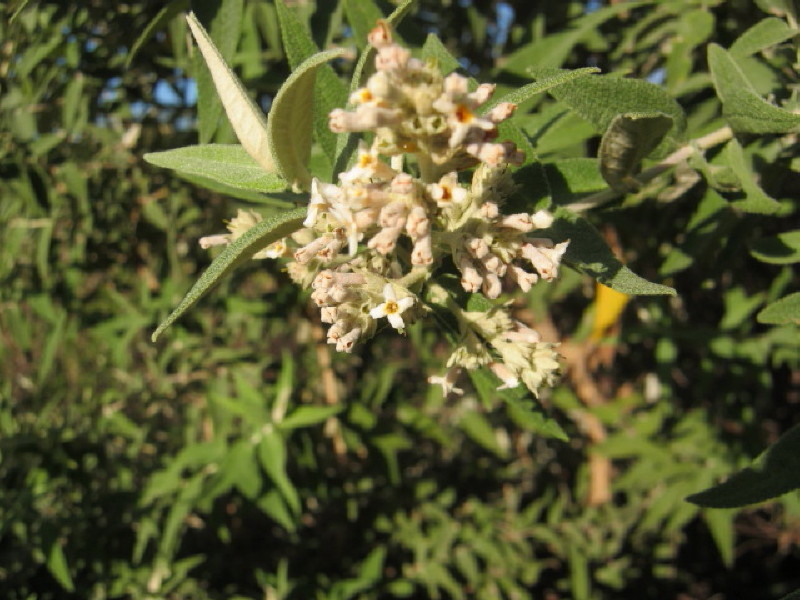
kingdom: Plantae
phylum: Tracheophyta
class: Magnoliopsida
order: Lamiales
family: Scrophulariaceae
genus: Buddleja
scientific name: Buddleja salviifolia
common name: Sagewood
